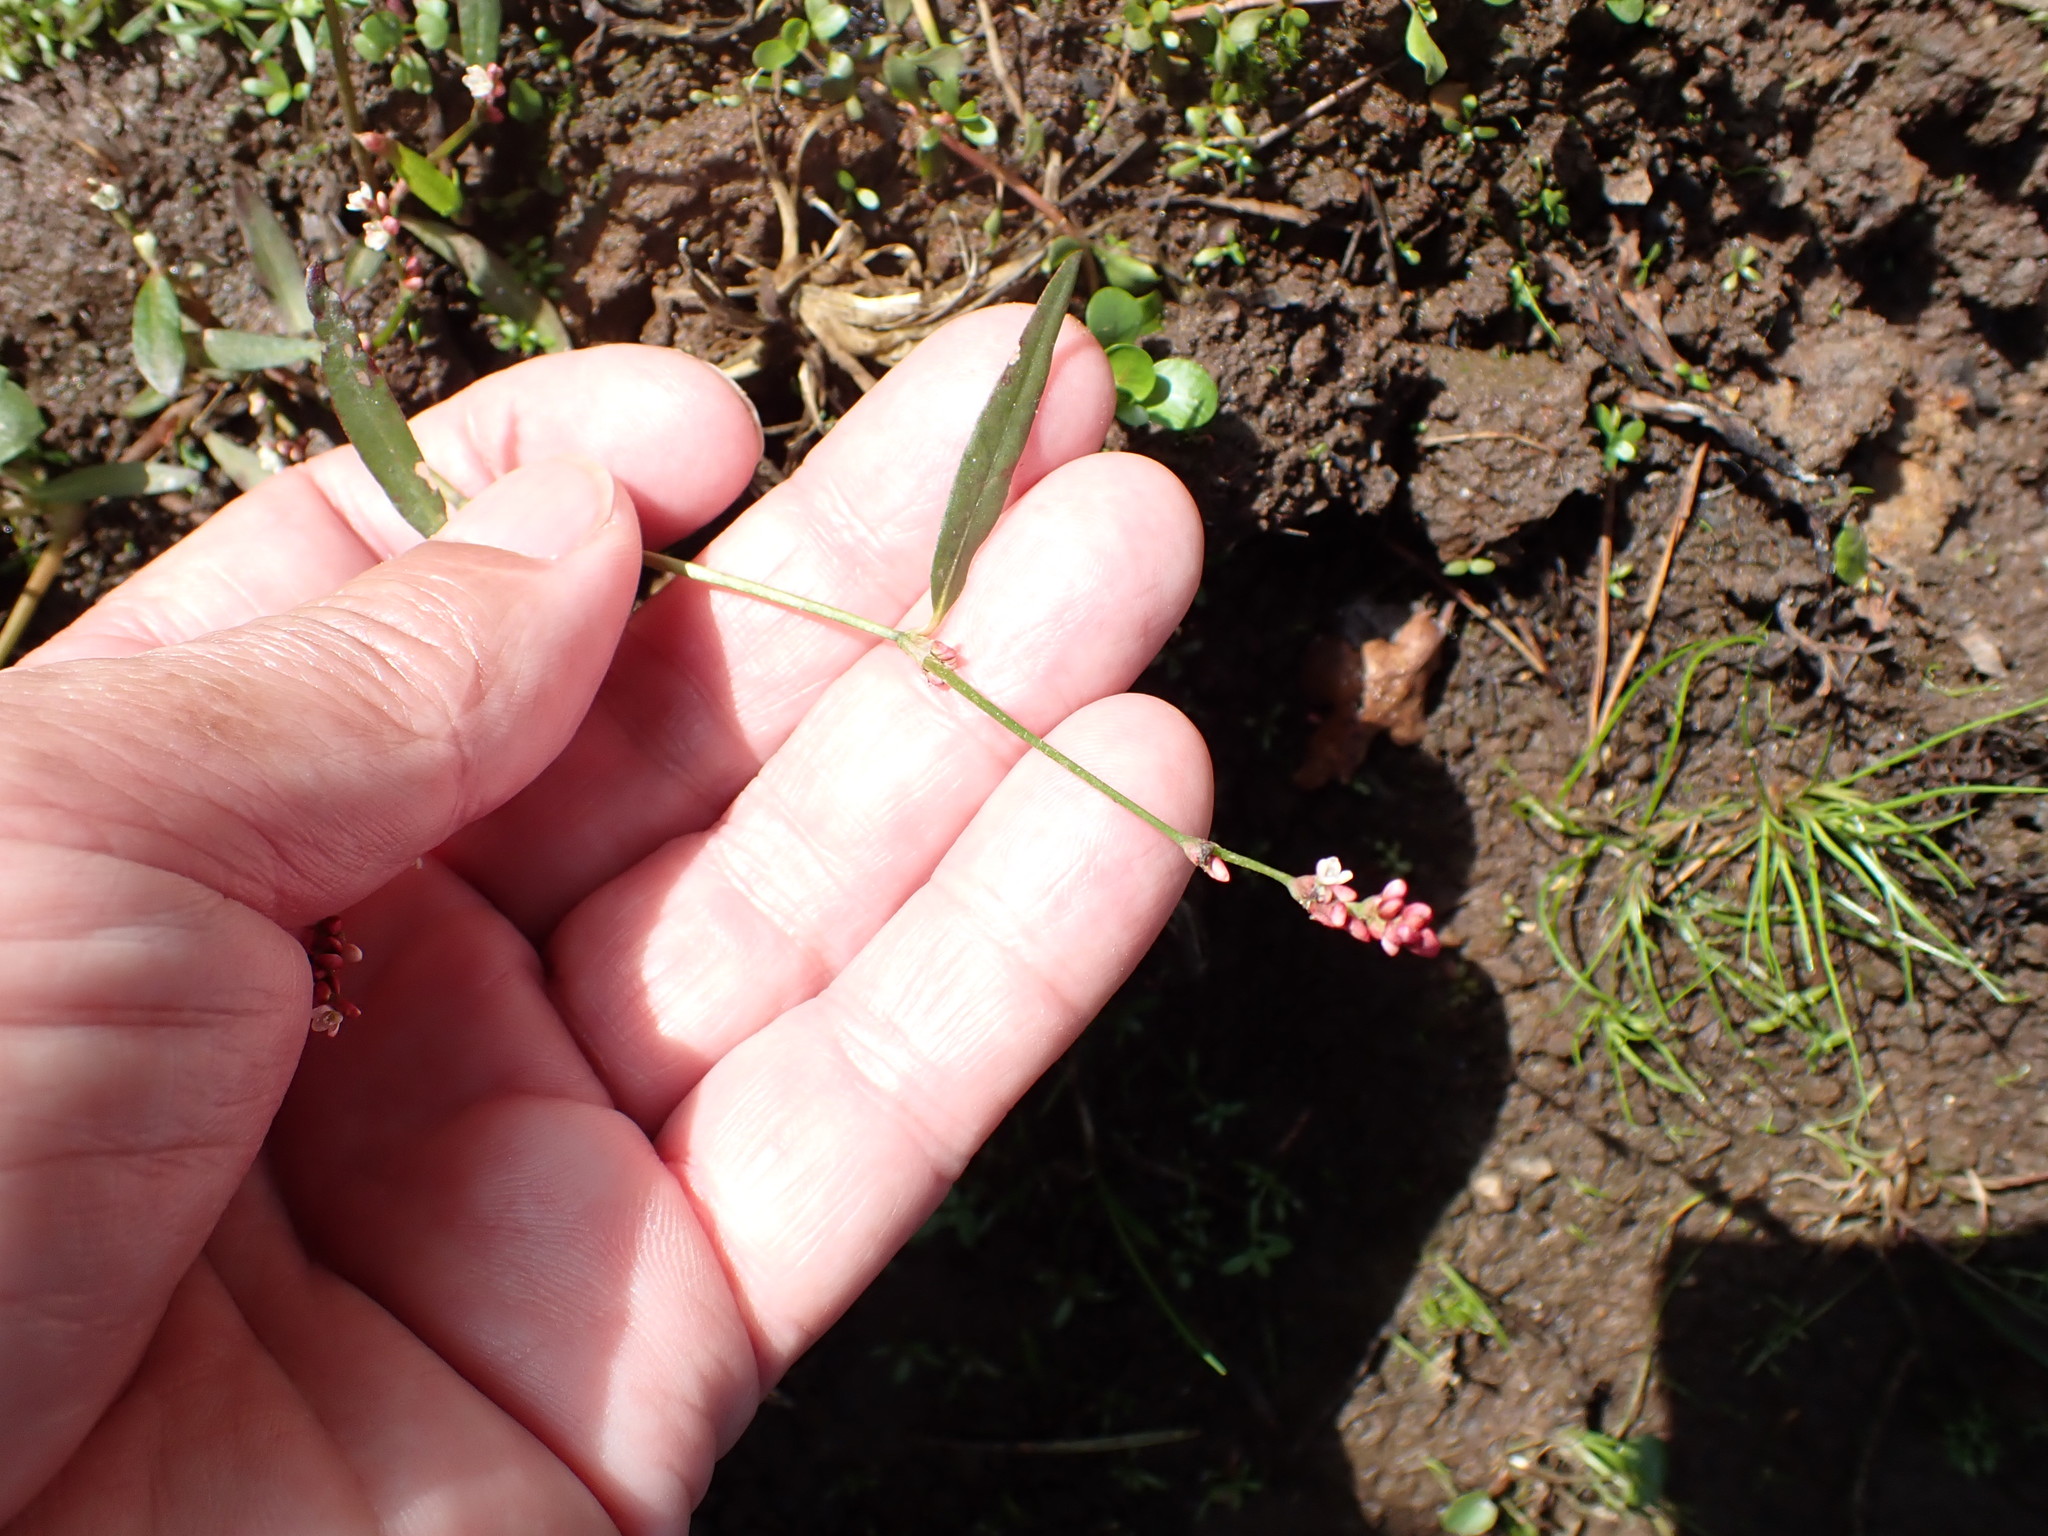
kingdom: Plantae
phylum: Tracheophyta
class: Magnoliopsida
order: Caryophyllales
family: Polygonaceae
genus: Persicaria
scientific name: Persicaria minor
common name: Small water-pepper
